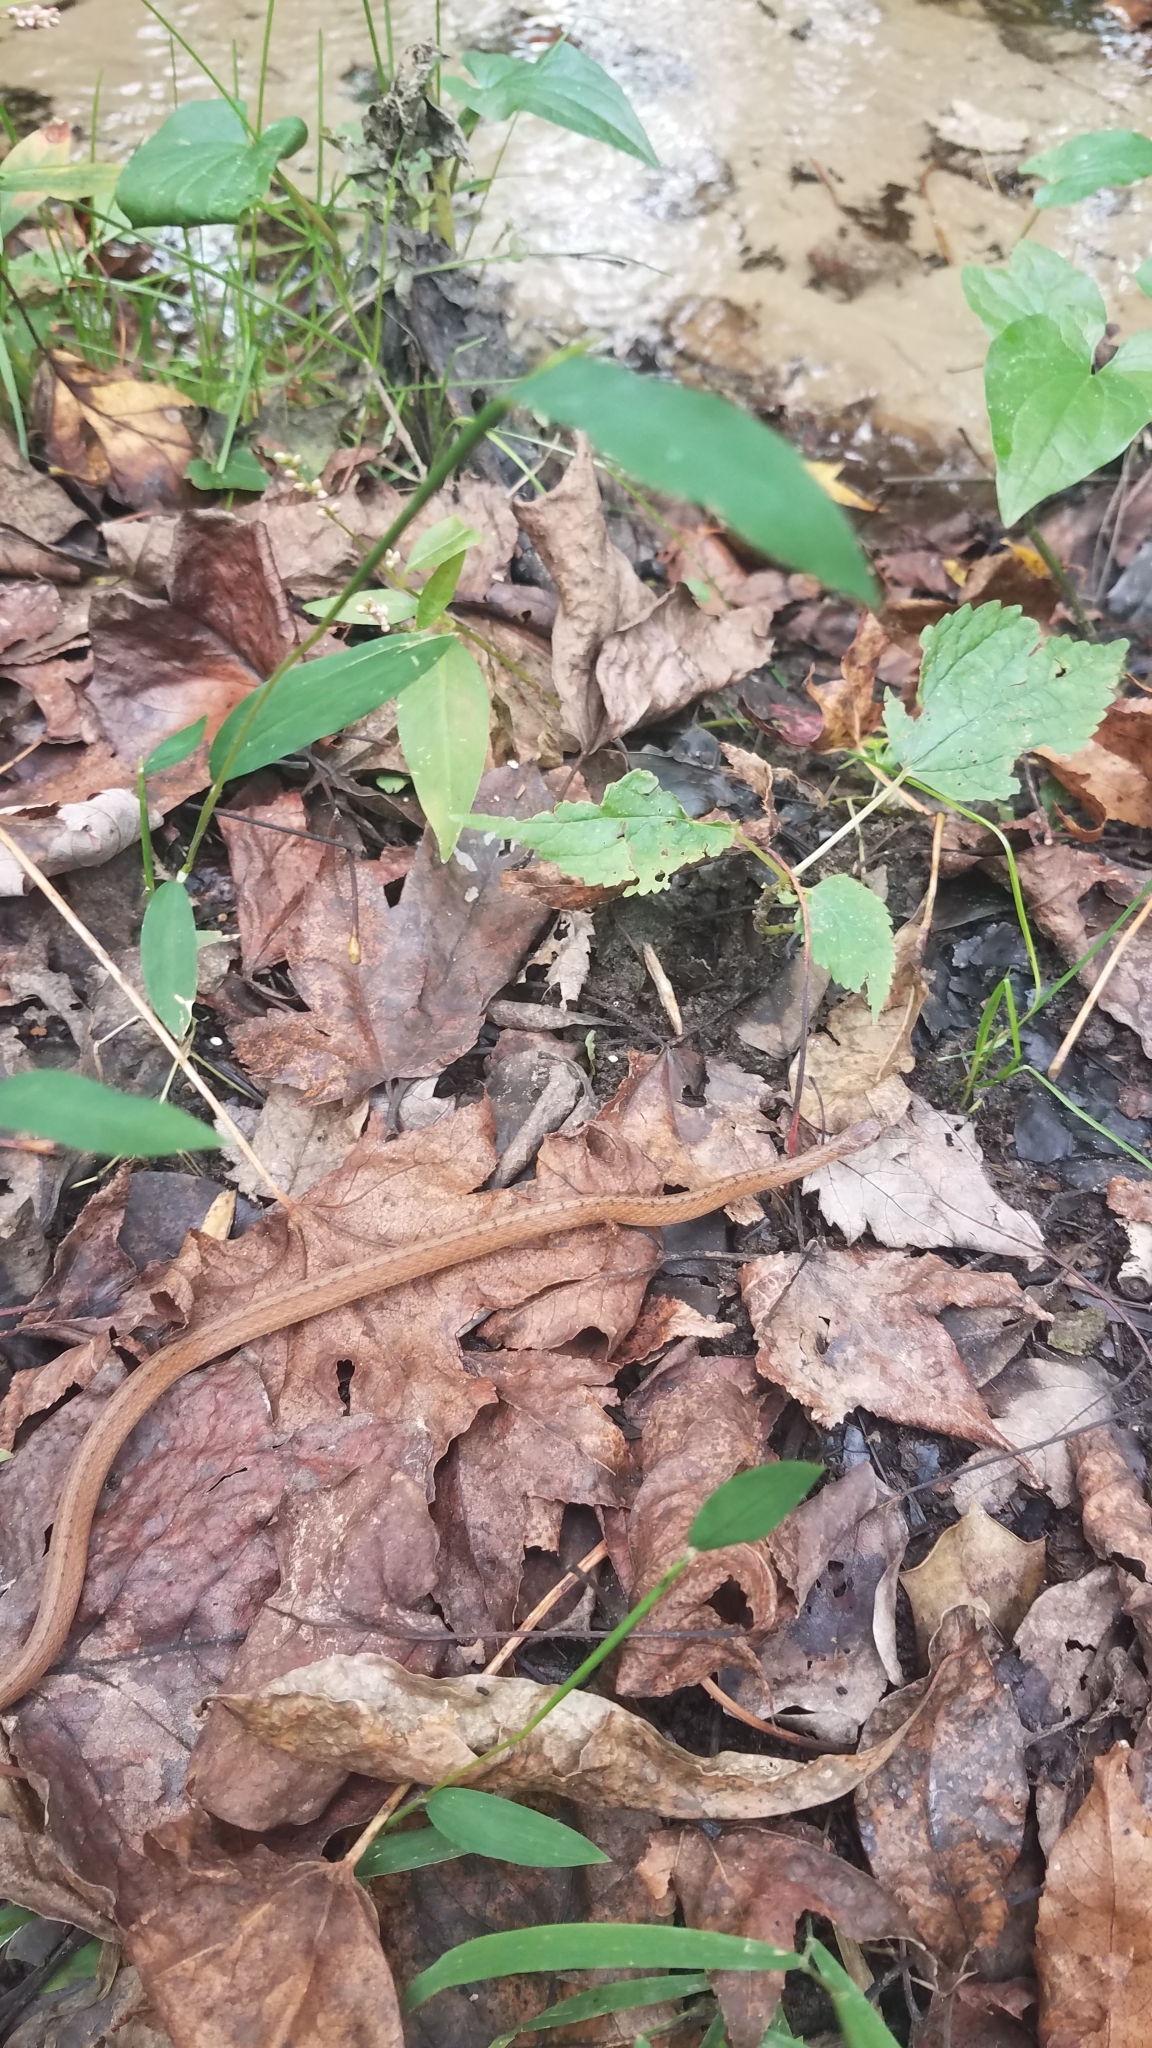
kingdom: Animalia
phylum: Chordata
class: Squamata
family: Colubridae
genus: Storeria
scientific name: Storeria dekayi
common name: (dekay’s) brown snake
